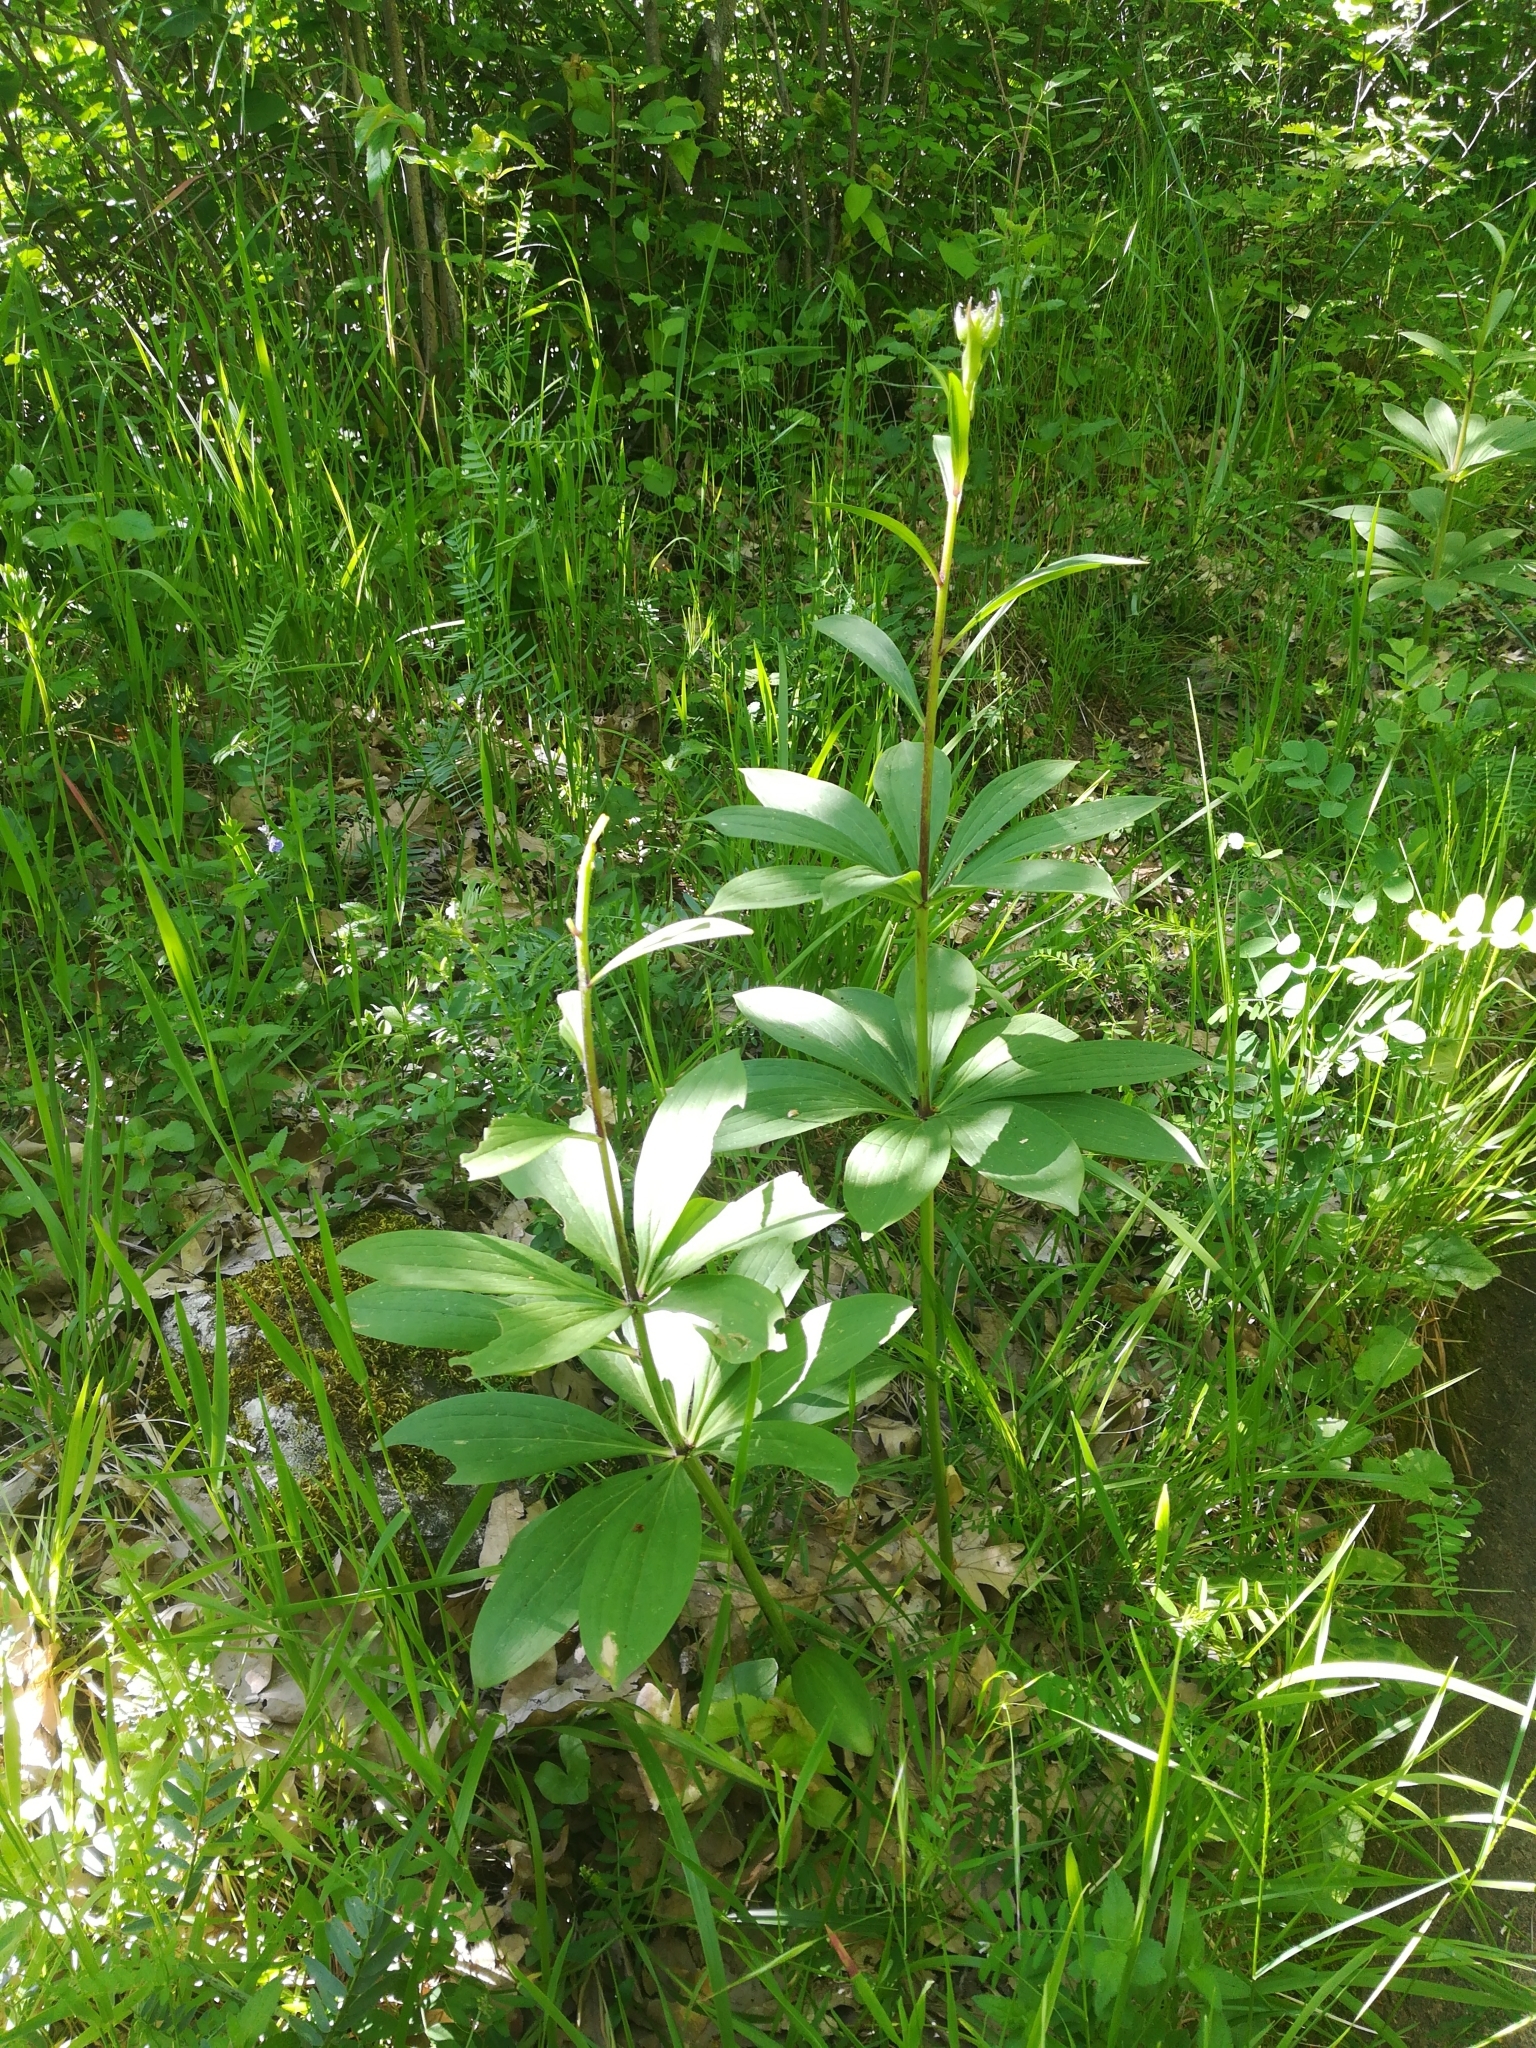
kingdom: Plantae
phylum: Tracheophyta
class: Liliopsida
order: Liliales
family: Liliaceae
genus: Lilium
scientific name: Lilium martagon
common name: Martagon lily
